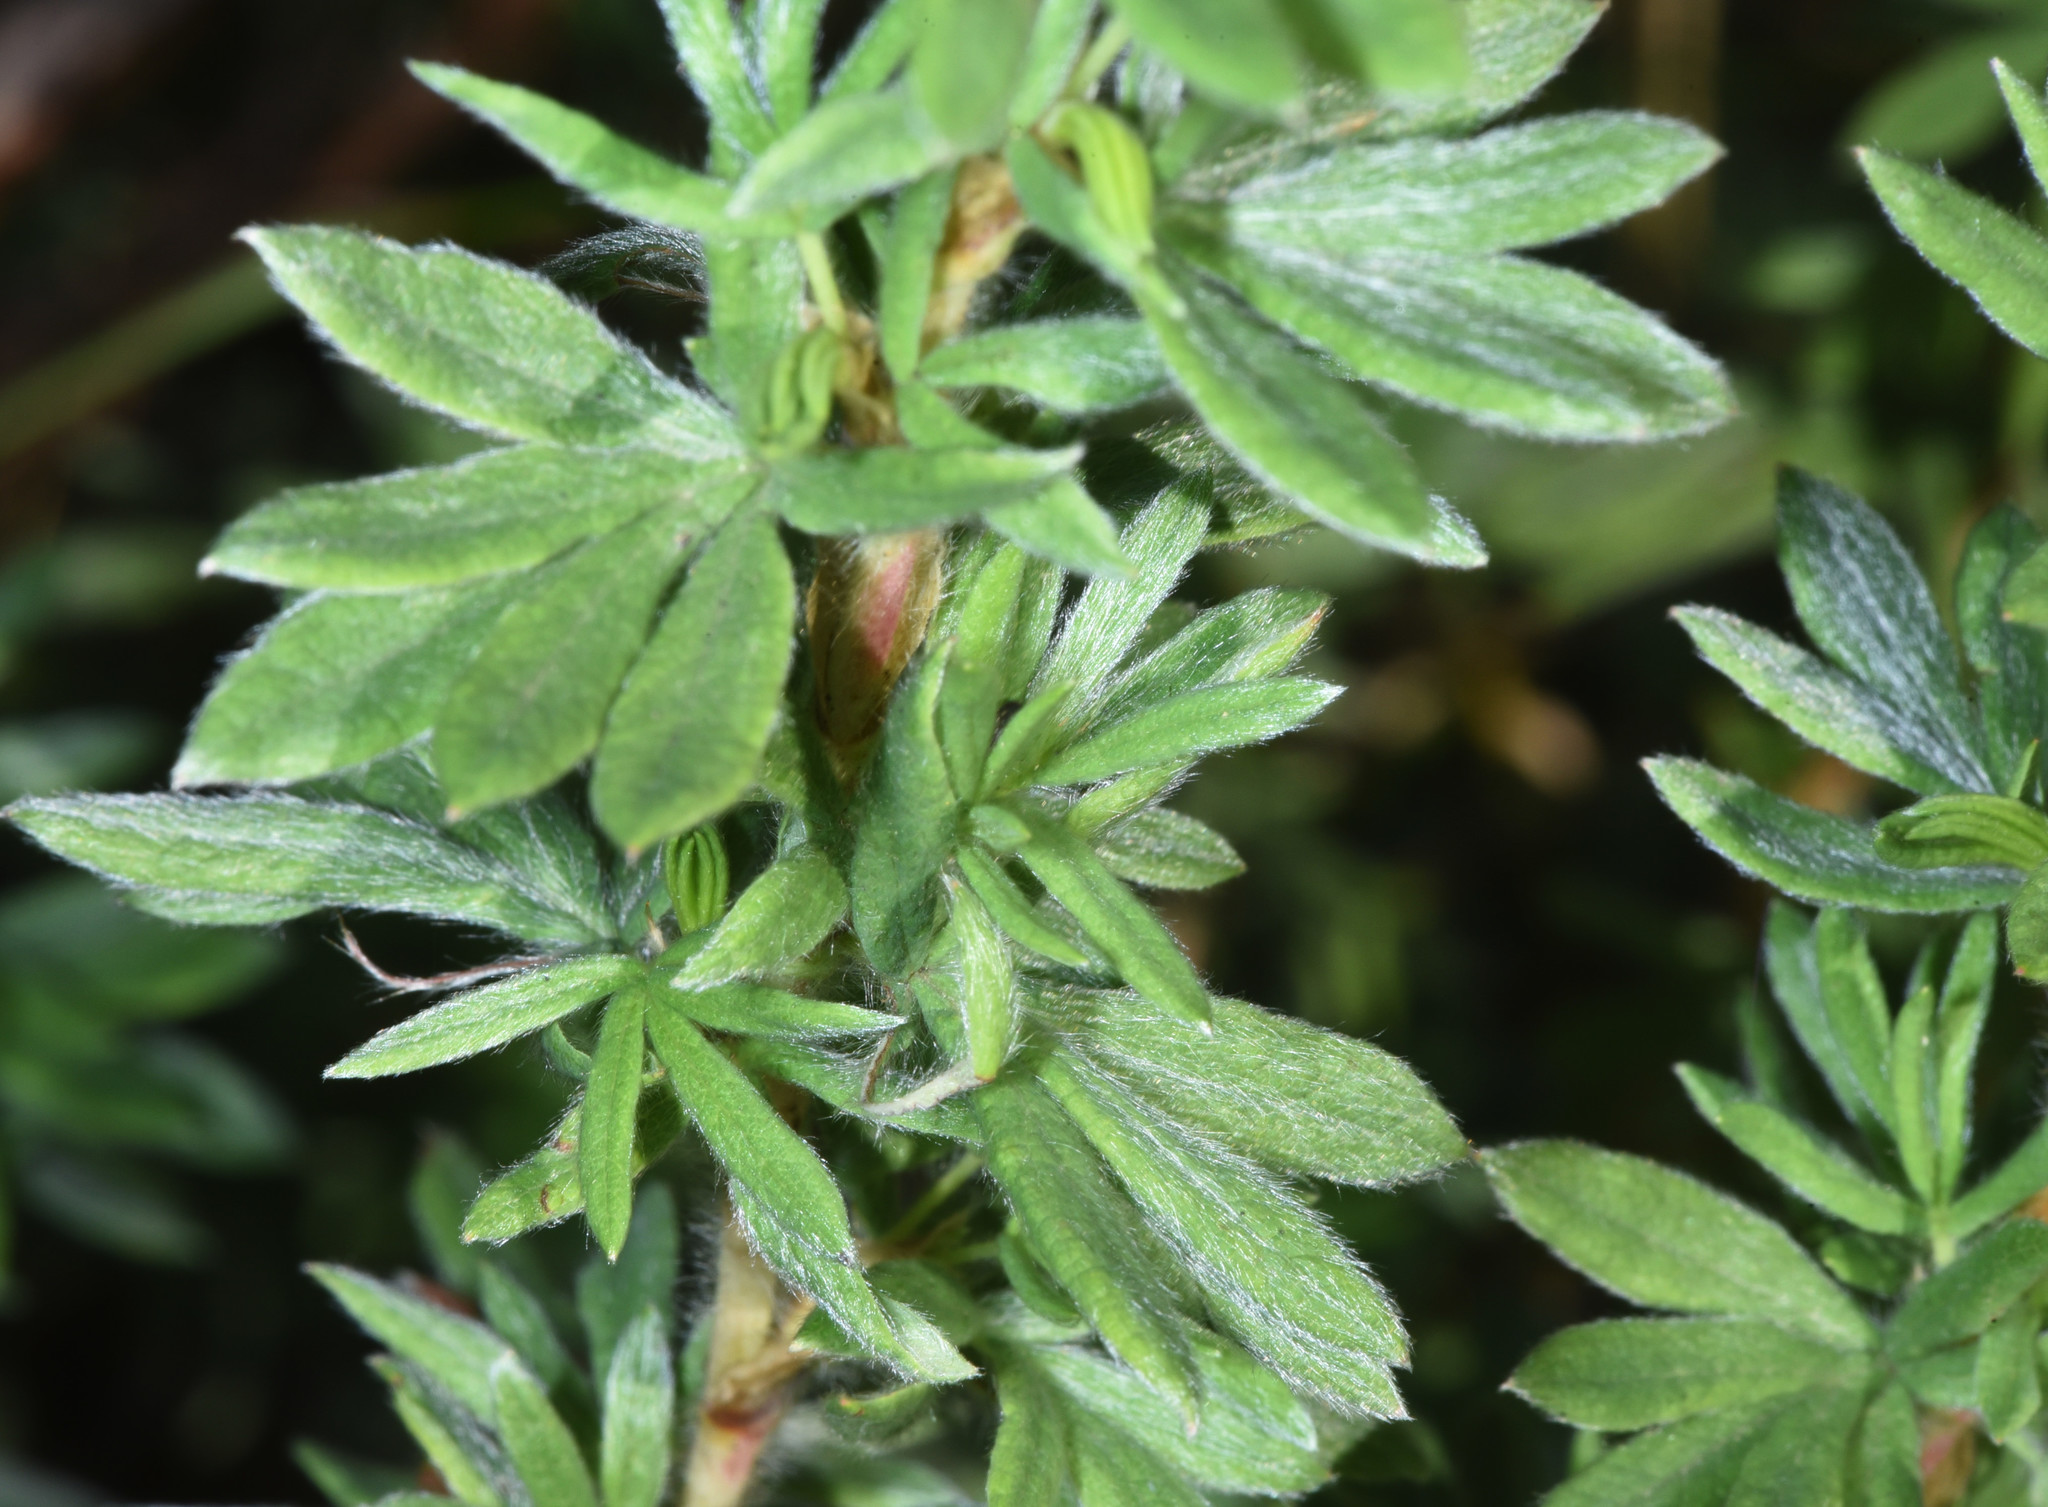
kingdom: Plantae
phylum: Tracheophyta
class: Magnoliopsida
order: Rosales
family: Rosaceae
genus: Dasiphora
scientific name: Dasiphora fruticosa
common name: Shrubby cinquefoil
